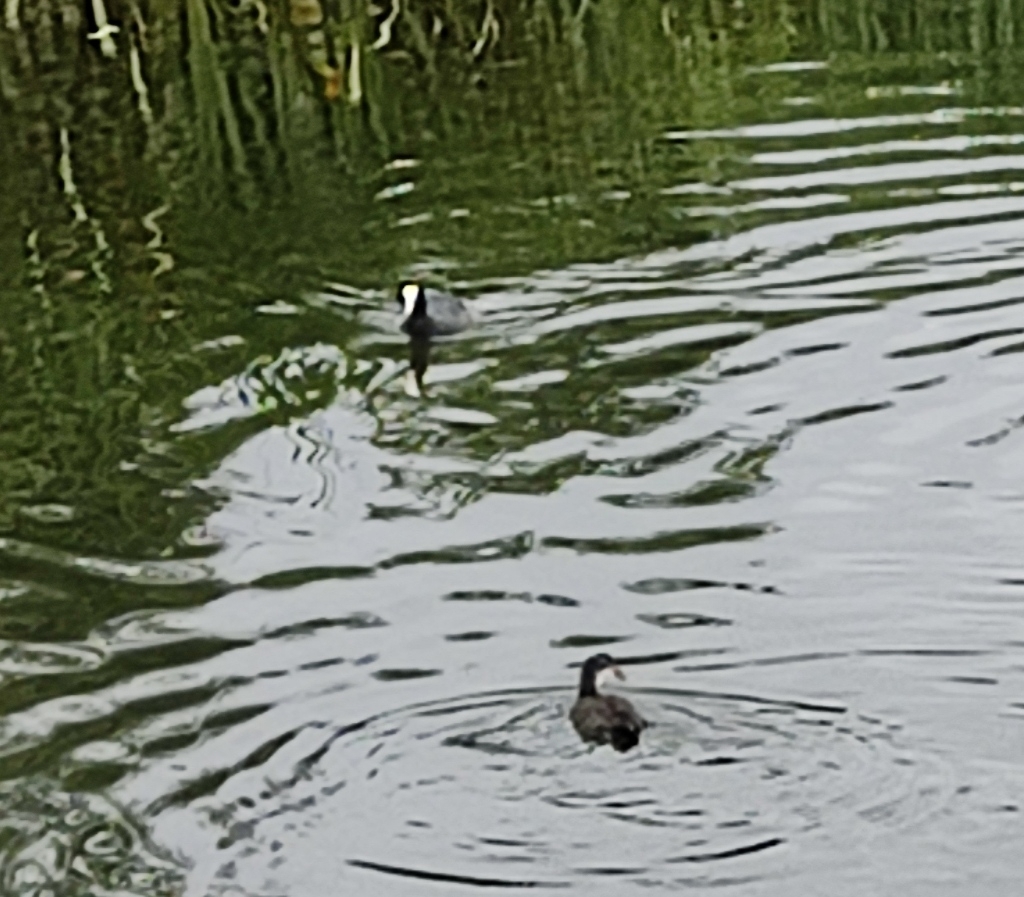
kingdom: Animalia
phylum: Chordata
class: Aves
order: Gruiformes
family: Rallidae
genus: Fulica
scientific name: Fulica atra
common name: Eurasian coot
